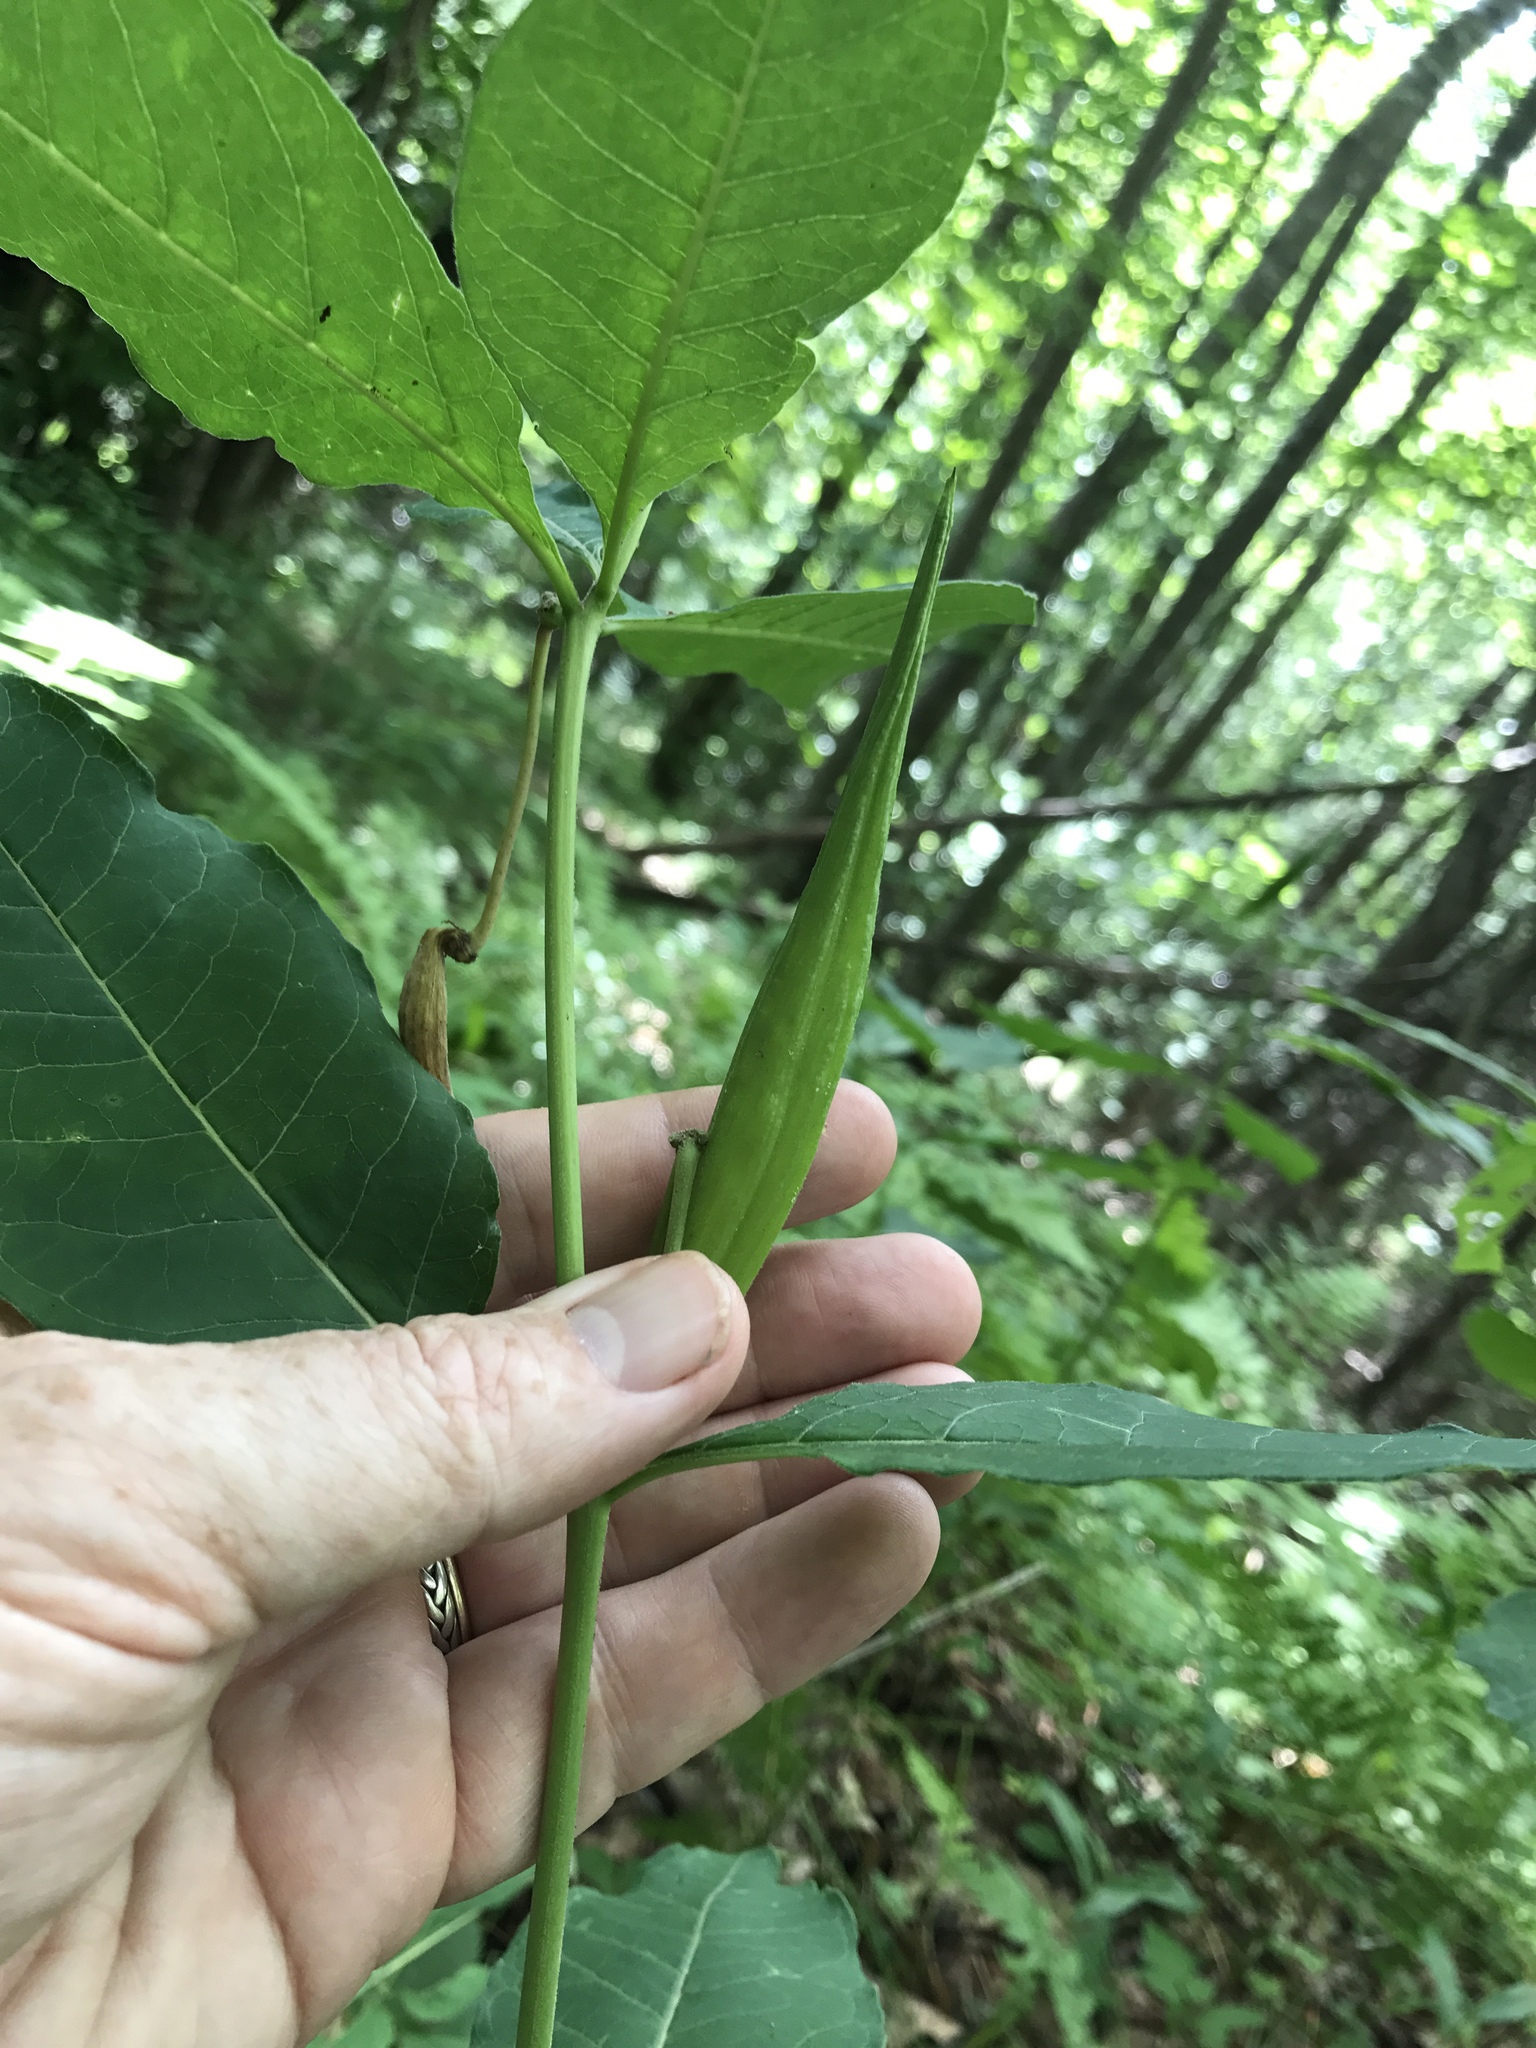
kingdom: Plantae
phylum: Tracheophyta
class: Magnoliopsida
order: Gentianales
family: Apocynaceae
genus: Asclepias
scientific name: Asclepias exaltata
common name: Poke milkweed
